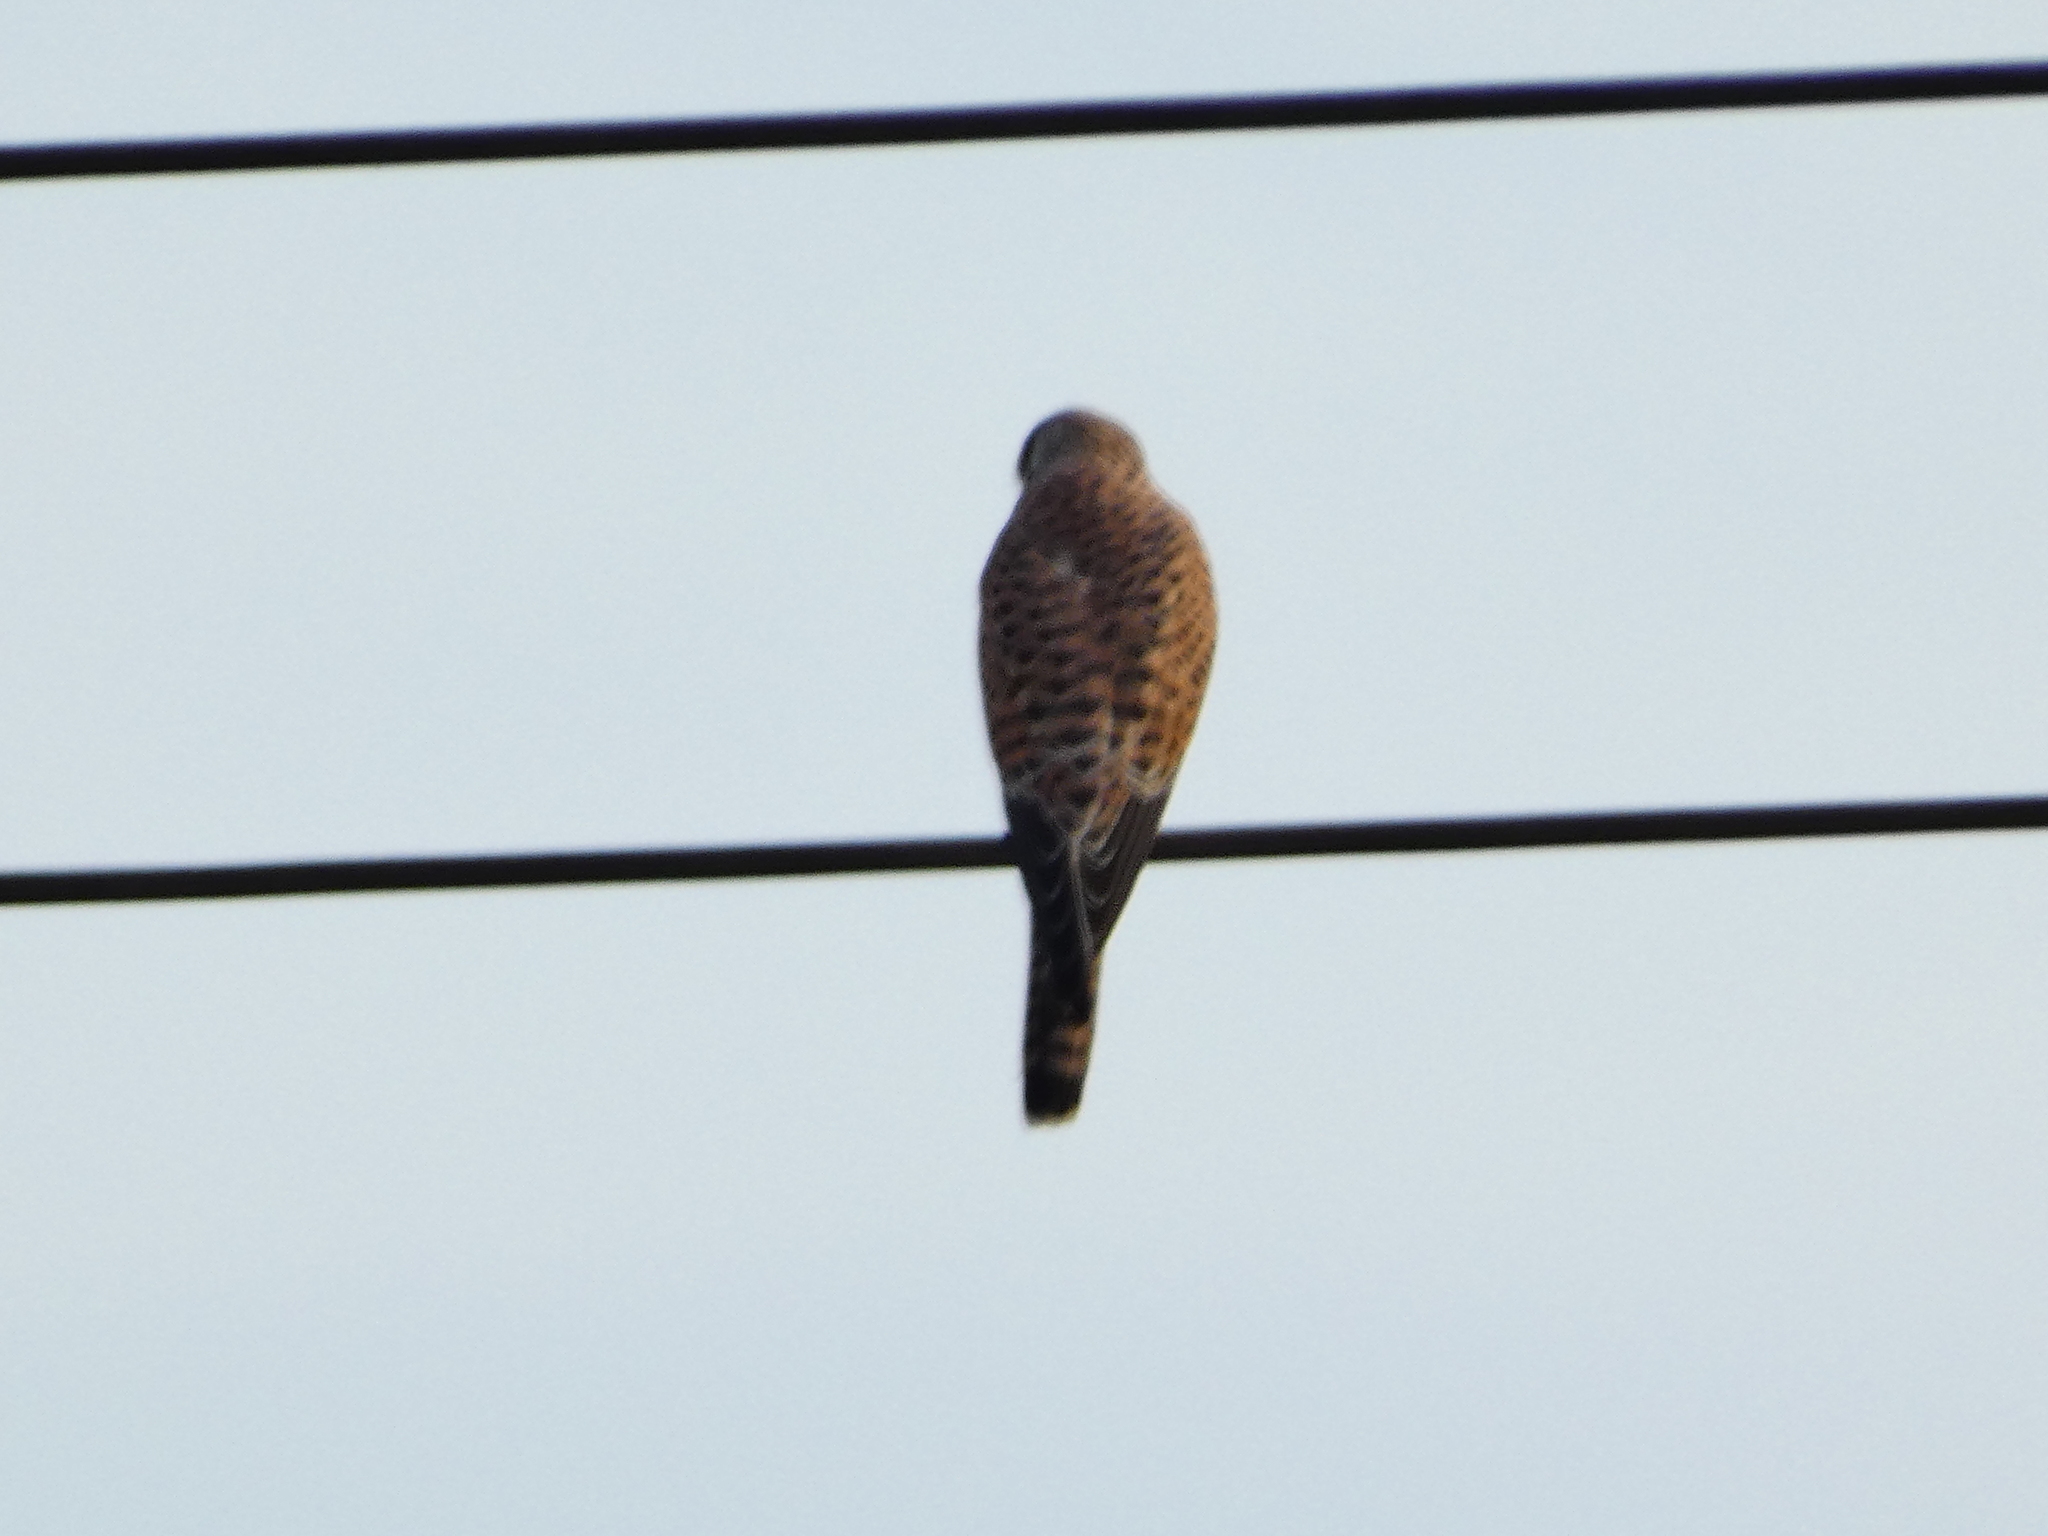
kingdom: Animalia
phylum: Chordata
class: Aves
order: Falconiformes
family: Falconidae
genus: Falco
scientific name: Falco tinnunculus
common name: Common kestrel
